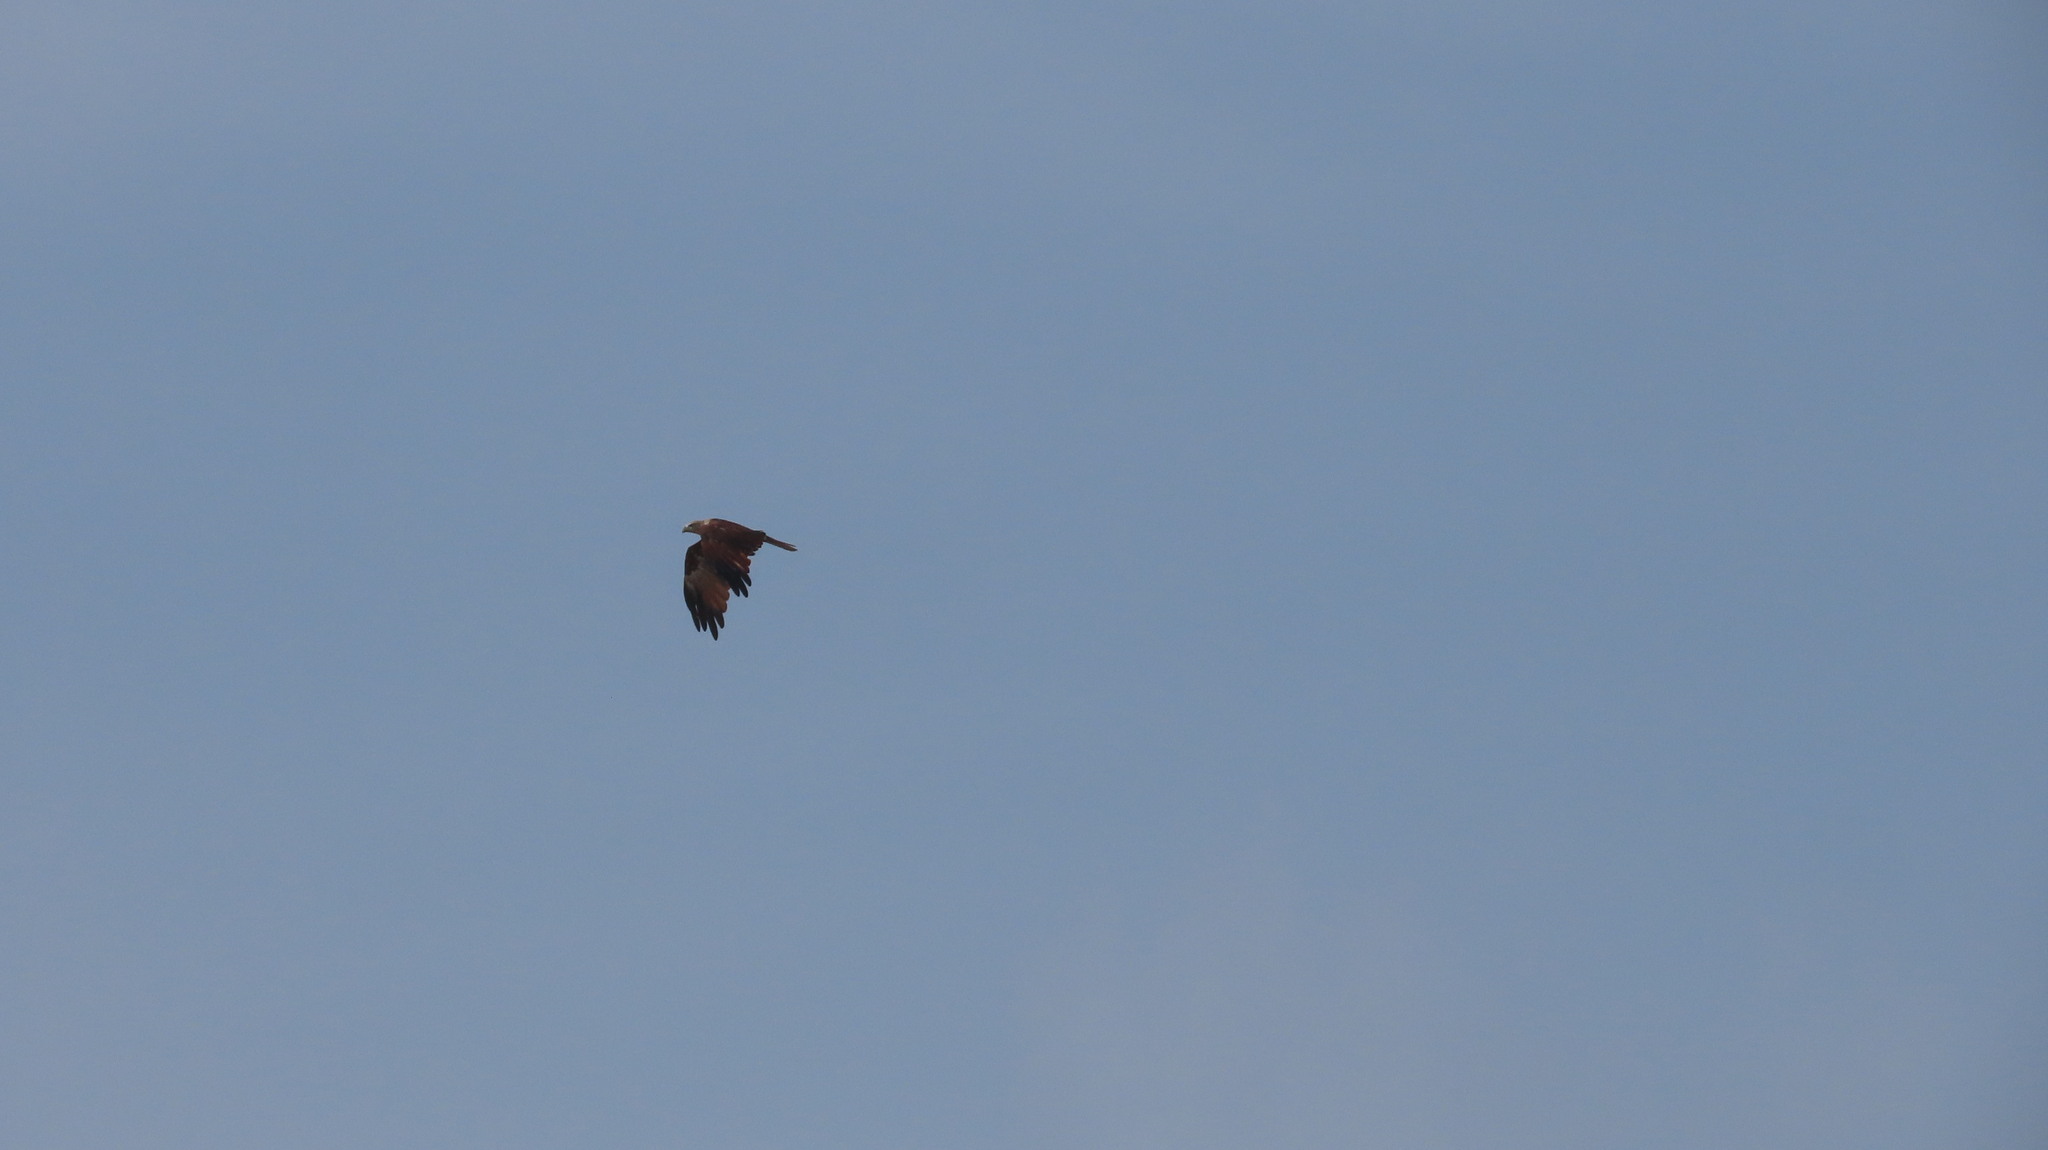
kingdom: Animalia
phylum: Chordata
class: Aves
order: Accipitriformes
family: Accipitridae
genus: Haliastur
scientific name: Haliastur indus
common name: Brahminy kite
